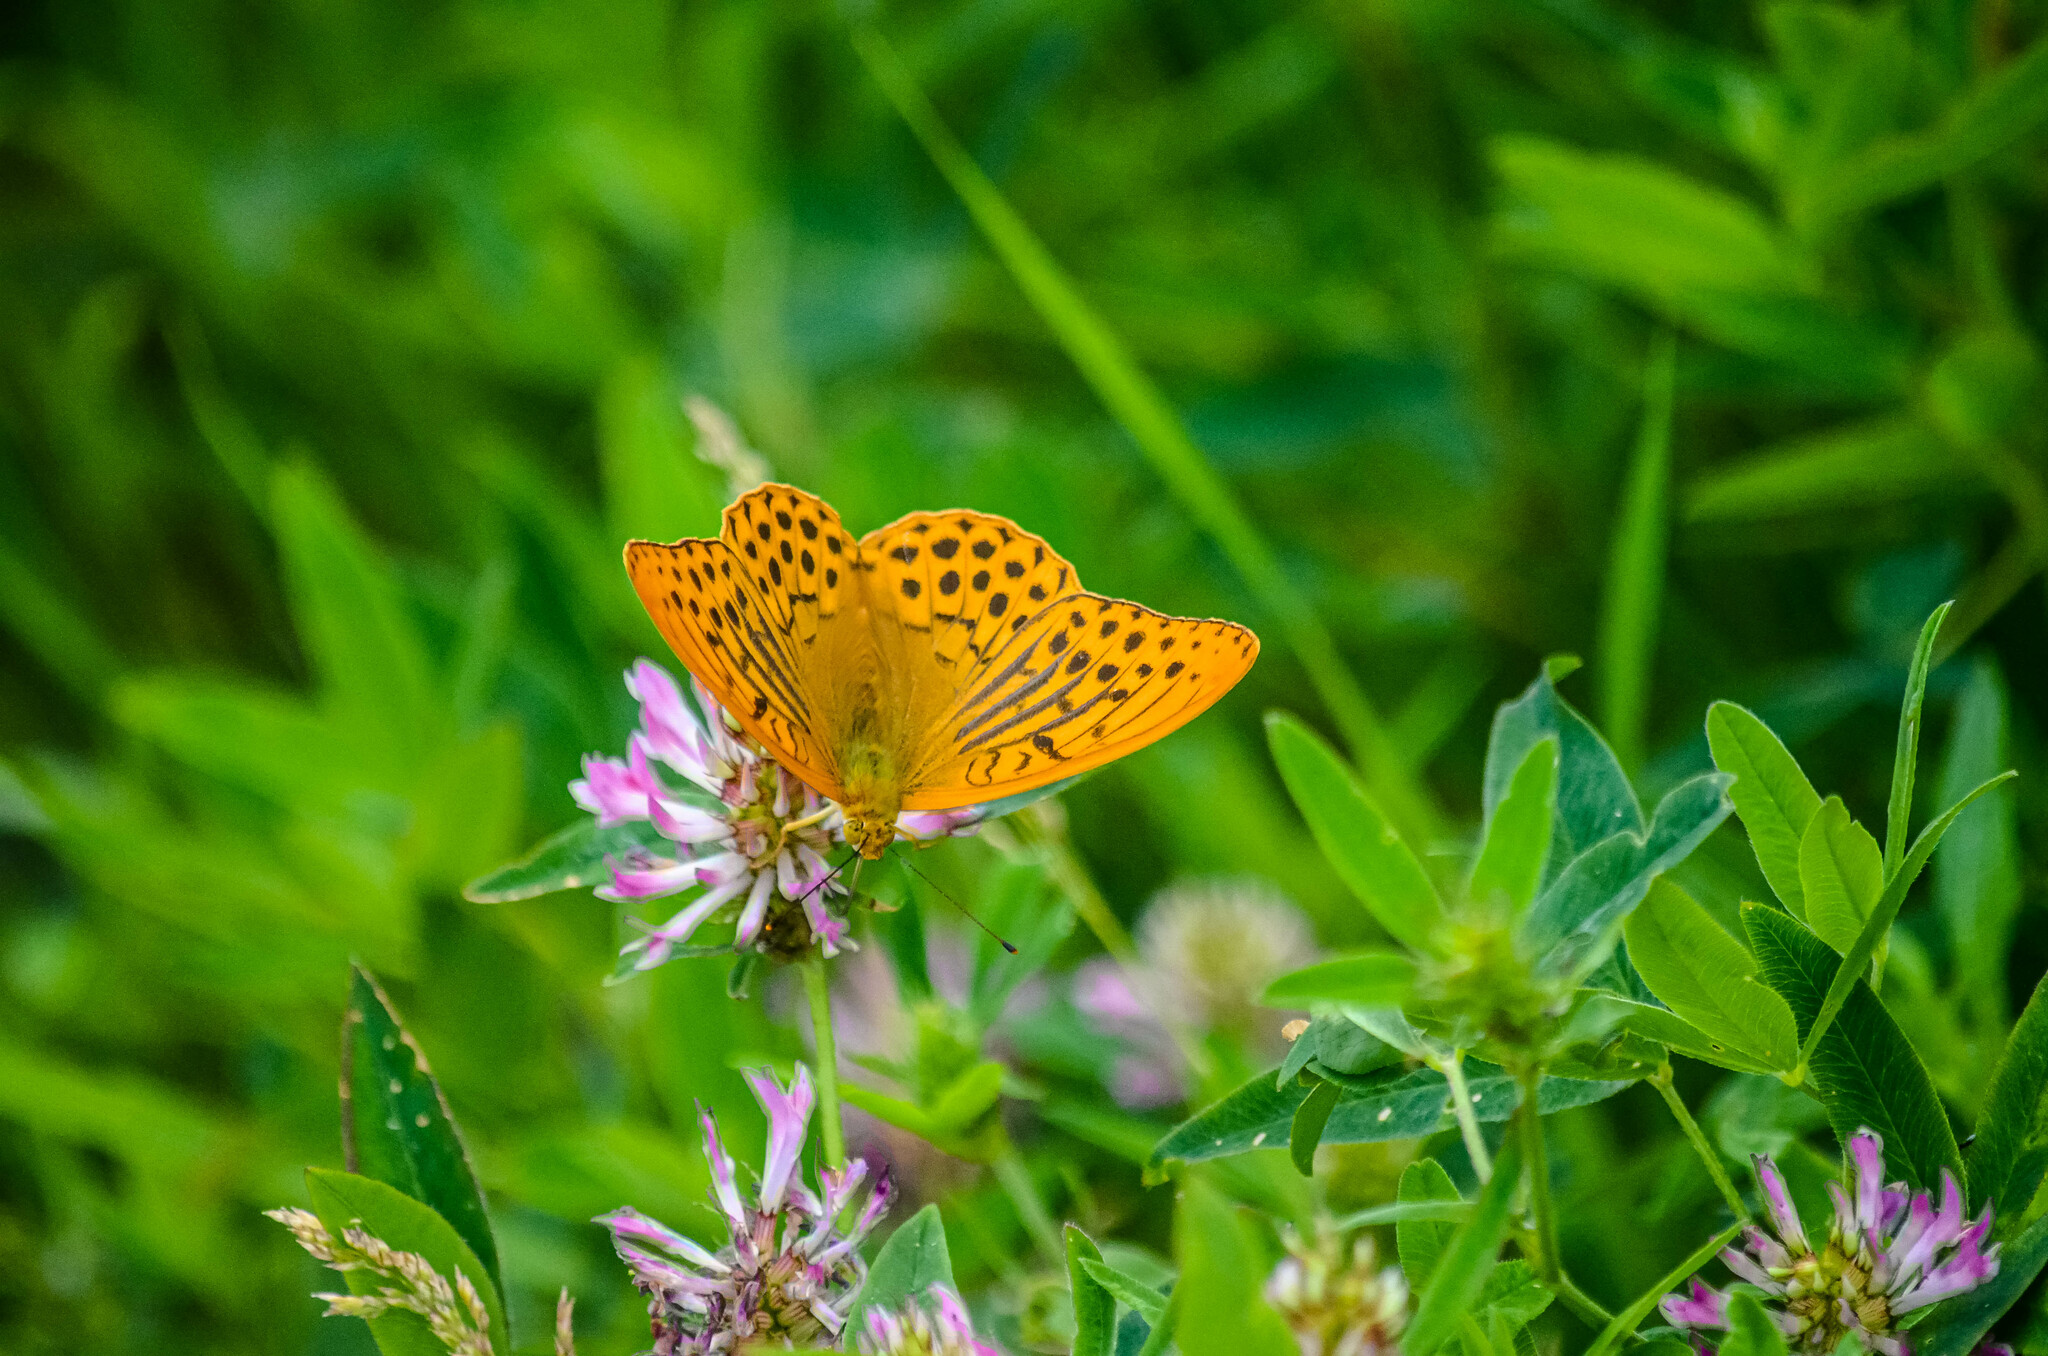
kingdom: Animalia
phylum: Arthropoda
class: Insecta
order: Lepidoptera
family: Nymphalidae
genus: Argynnis
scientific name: Argynnis paphia
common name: Silver-washed fritillary
